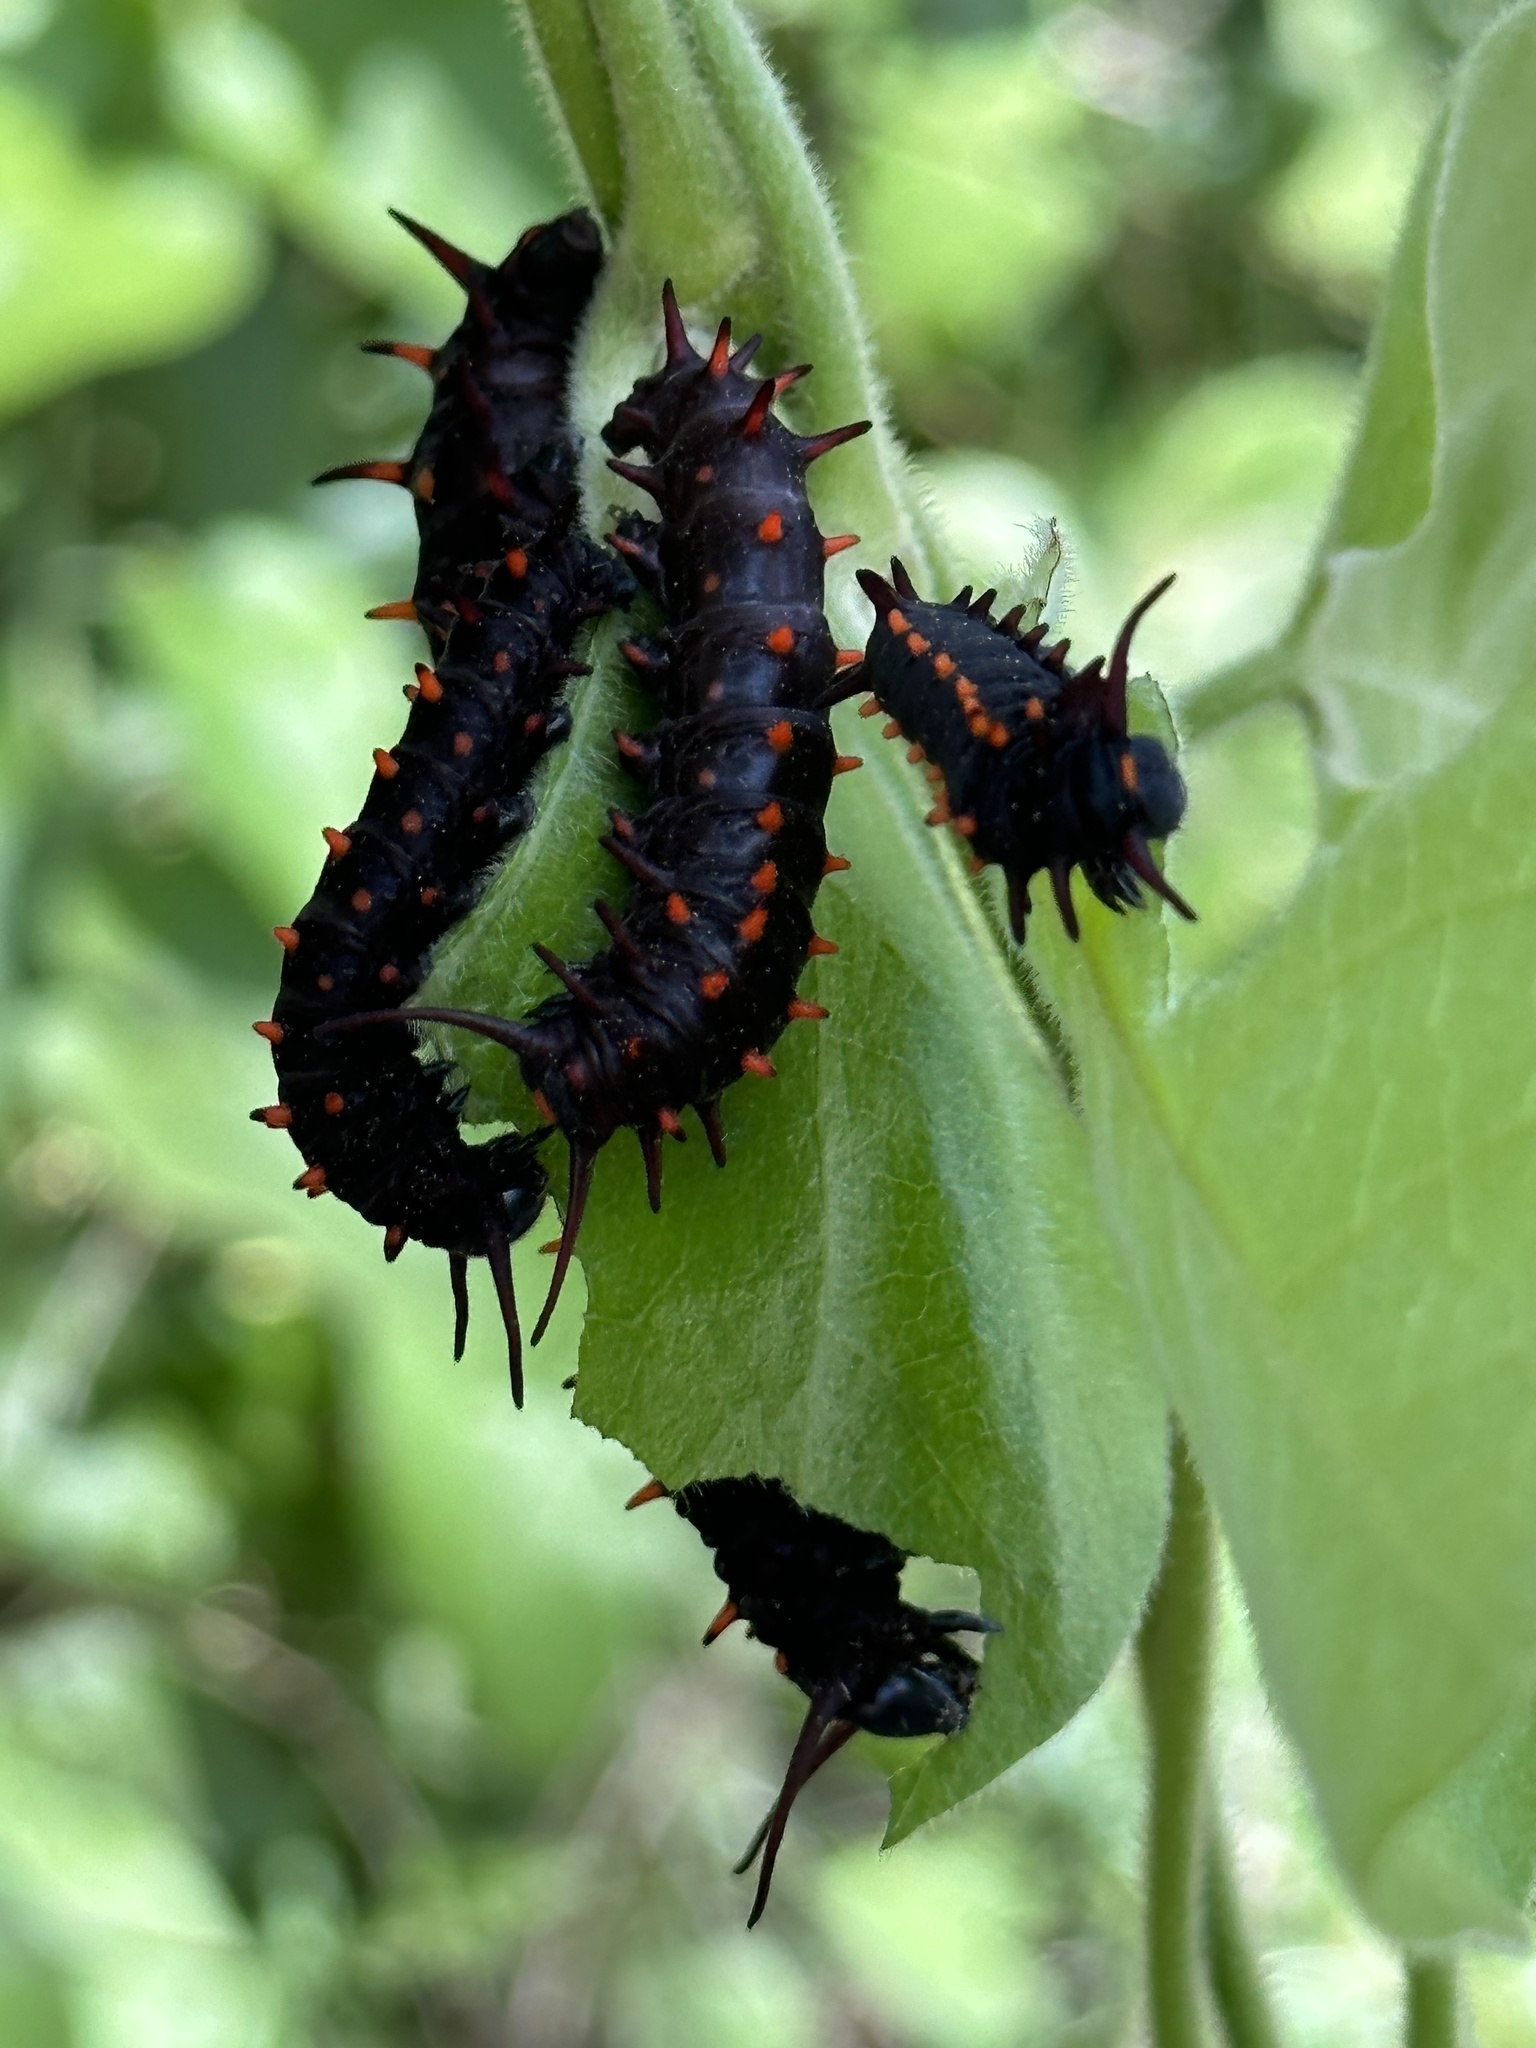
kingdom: Animalia
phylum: Arthropoda
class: Insecta
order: Lepidoptera
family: Papilionidae
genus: Battus
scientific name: Battus philenor
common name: Pipevine swallowtail
